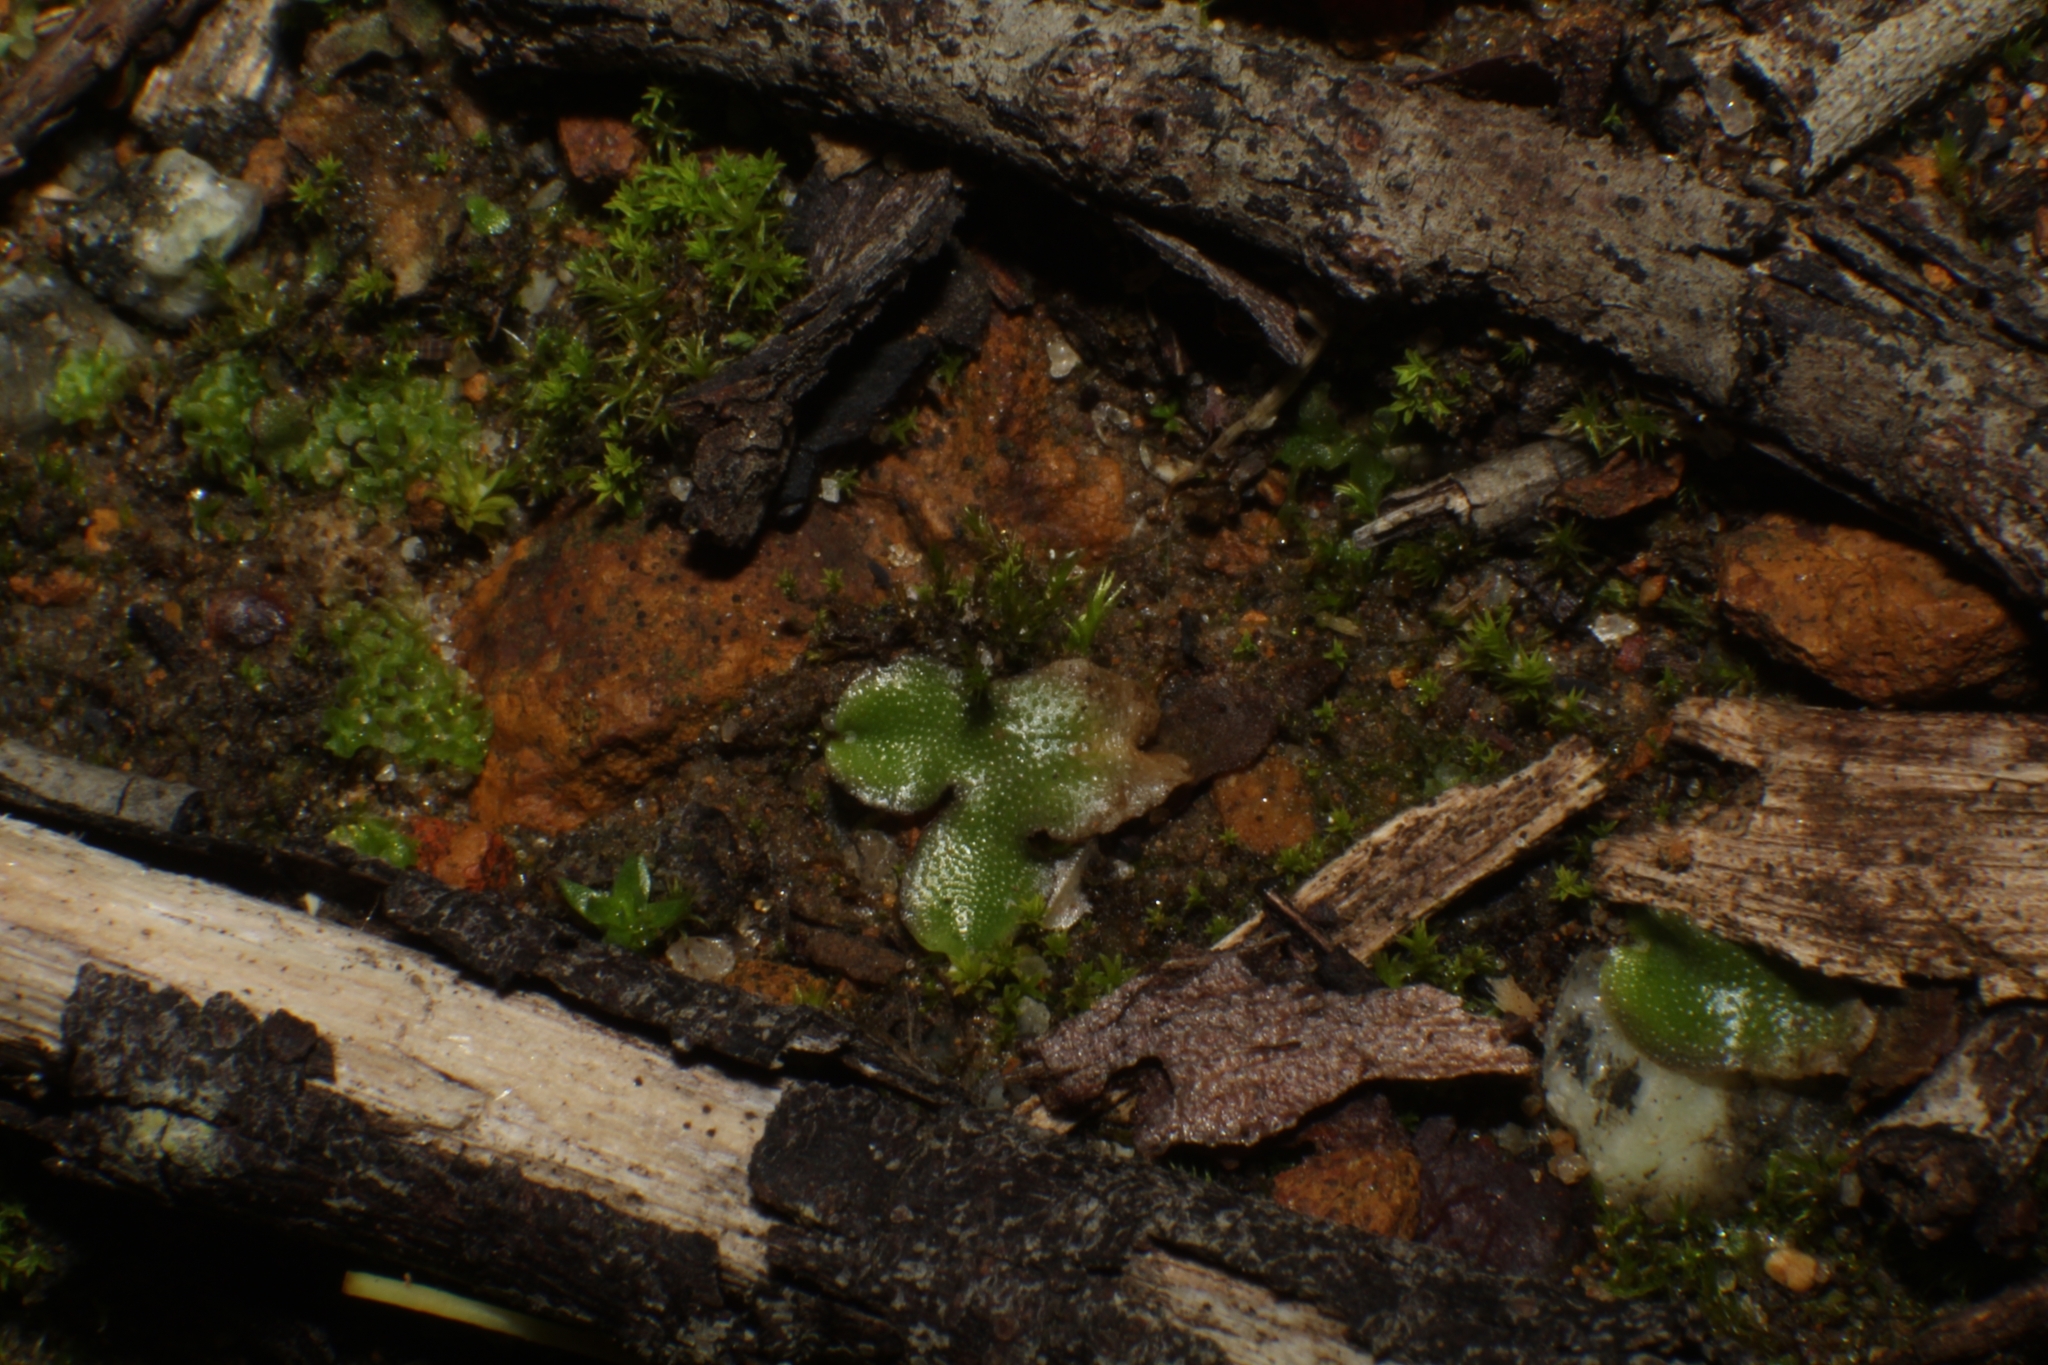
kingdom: Plantae
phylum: Marchantiophyta
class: Marchantiopsida
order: Lunulariales
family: Lunulariaceae
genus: Lunularia
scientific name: Lunularia cruciata
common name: Crescent-cup liverwort
